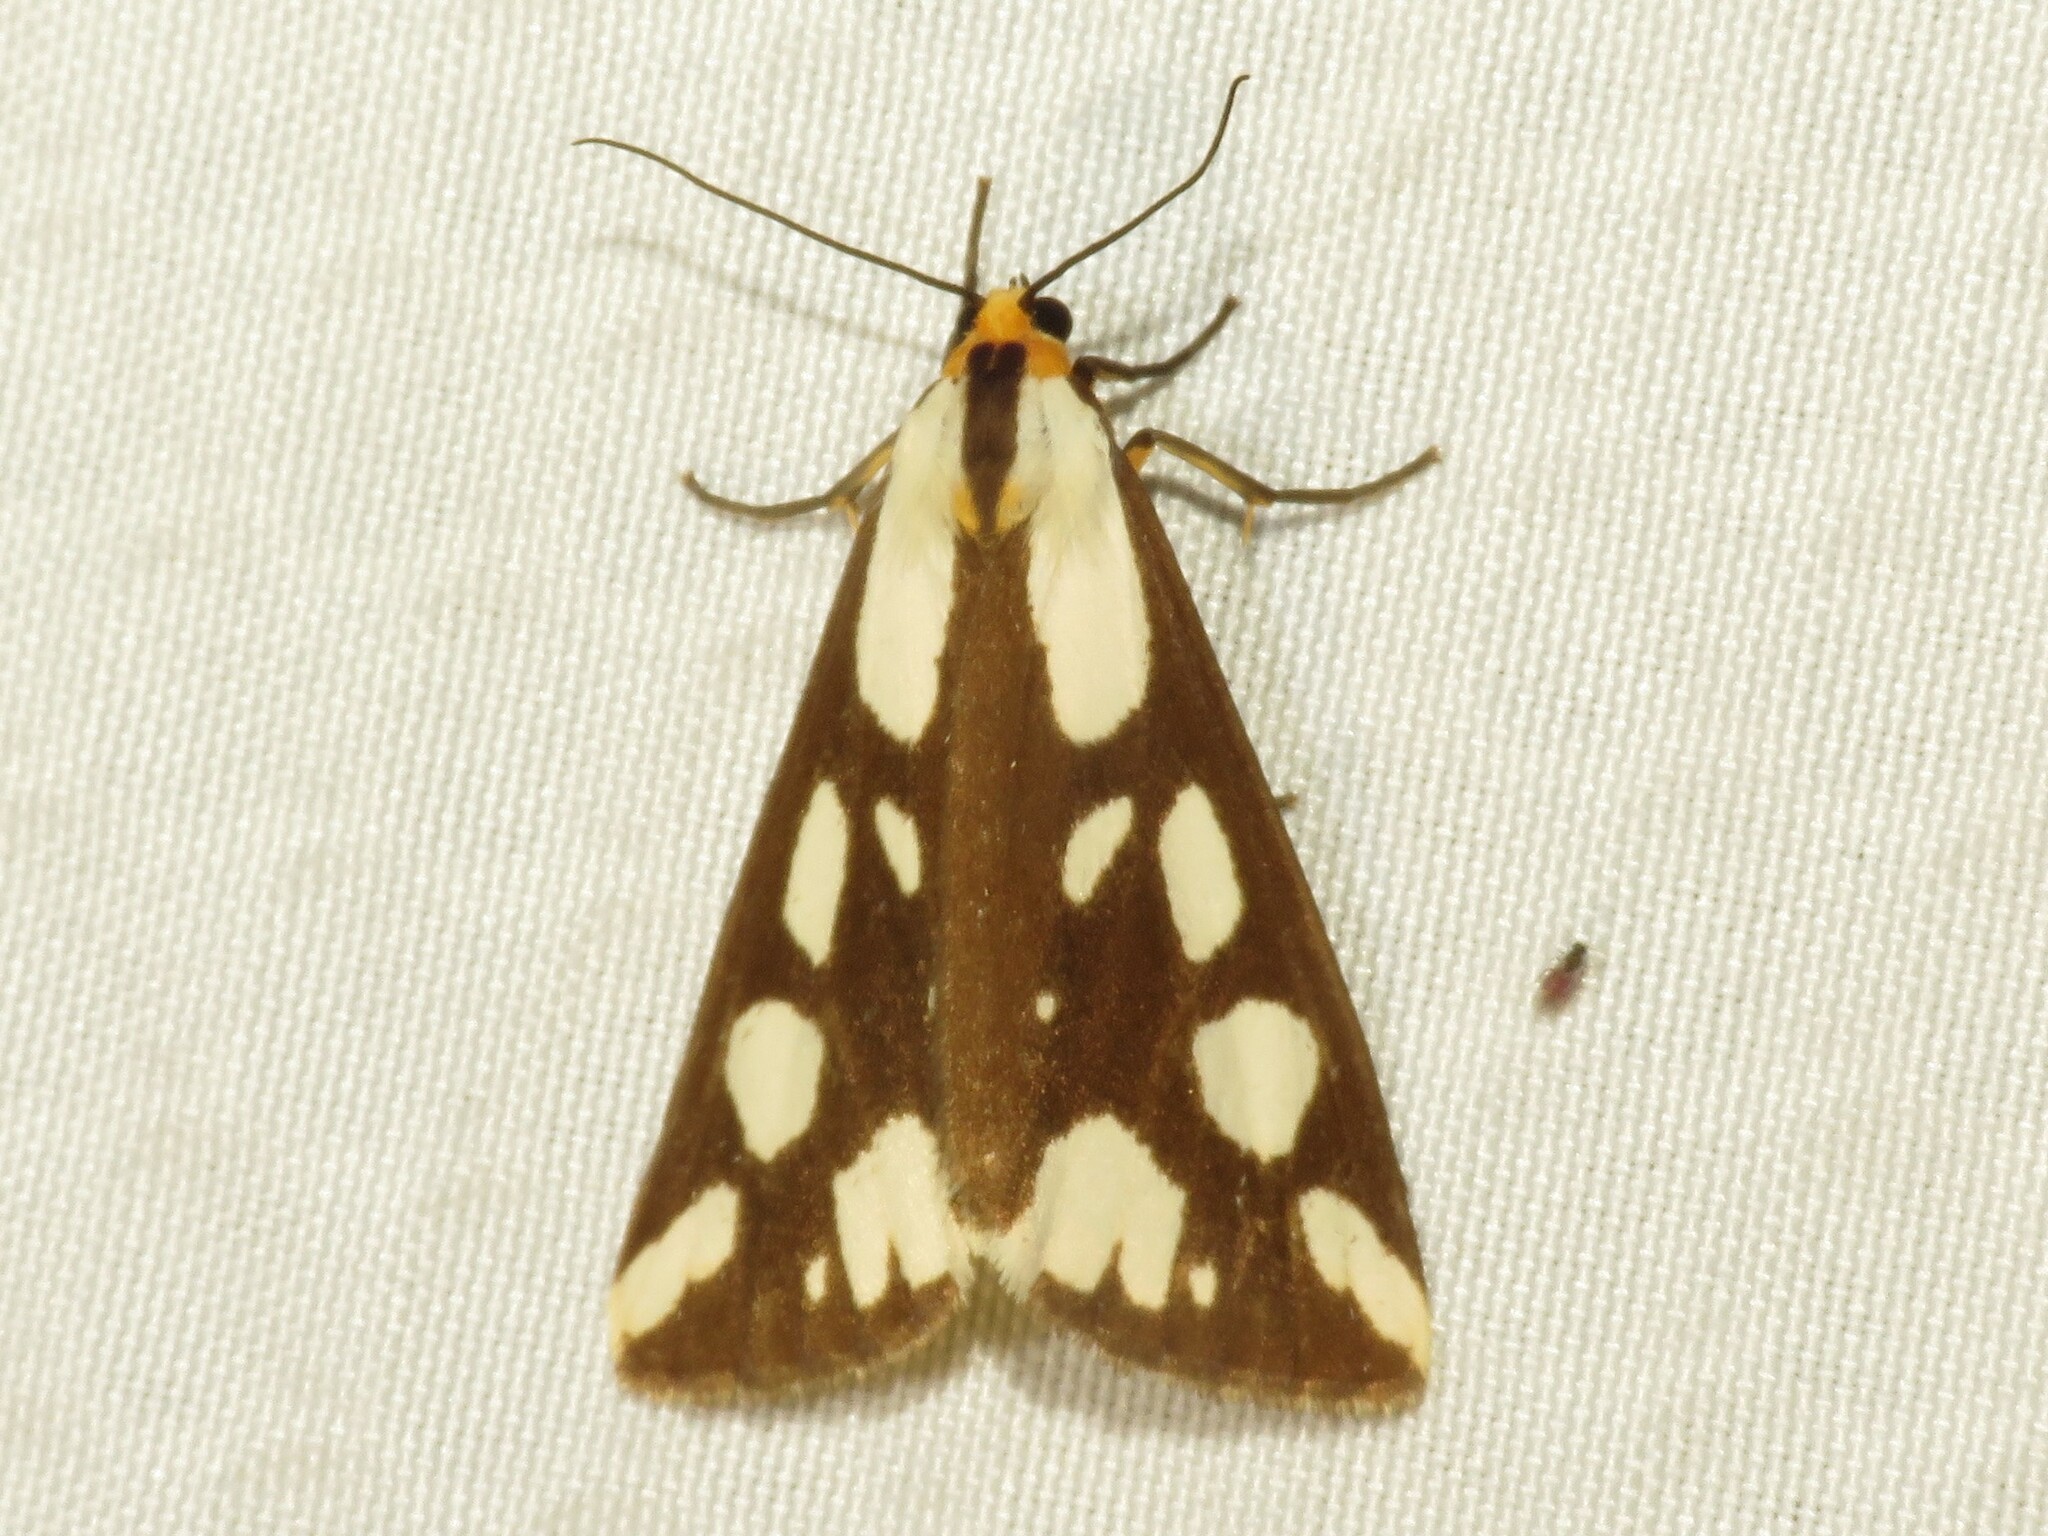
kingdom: Animalia
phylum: Arthropoda
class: Insecta
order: Lepidoptera
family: Erebidae
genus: Haploa
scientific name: Haploa confusa
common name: Confused haploa moth
